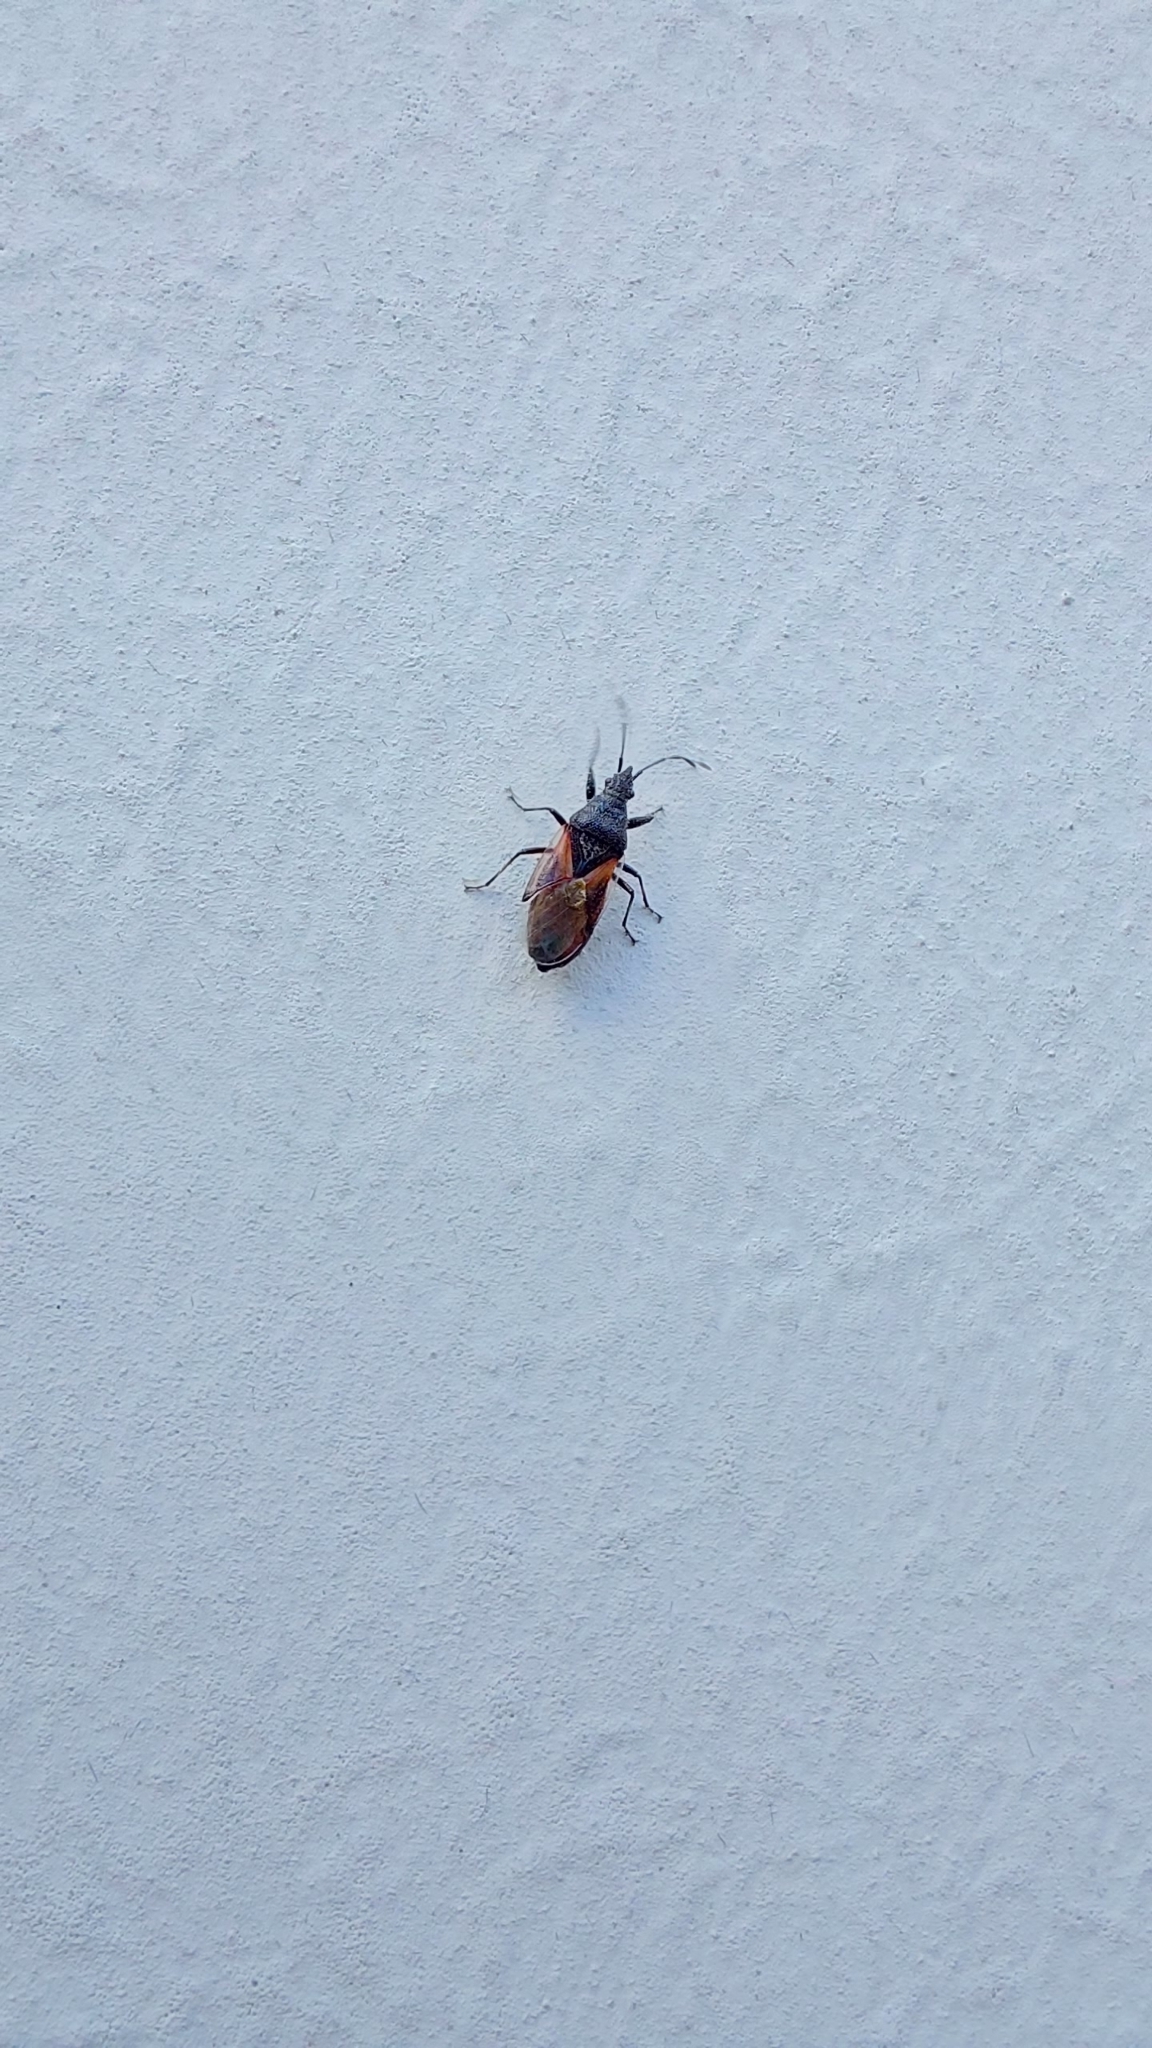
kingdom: Animalia
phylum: Arthropoda
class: Insecta
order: Hemiptera
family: Oxycarenidae
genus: Oxycarenus
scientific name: Oxycarenus lavaterae
